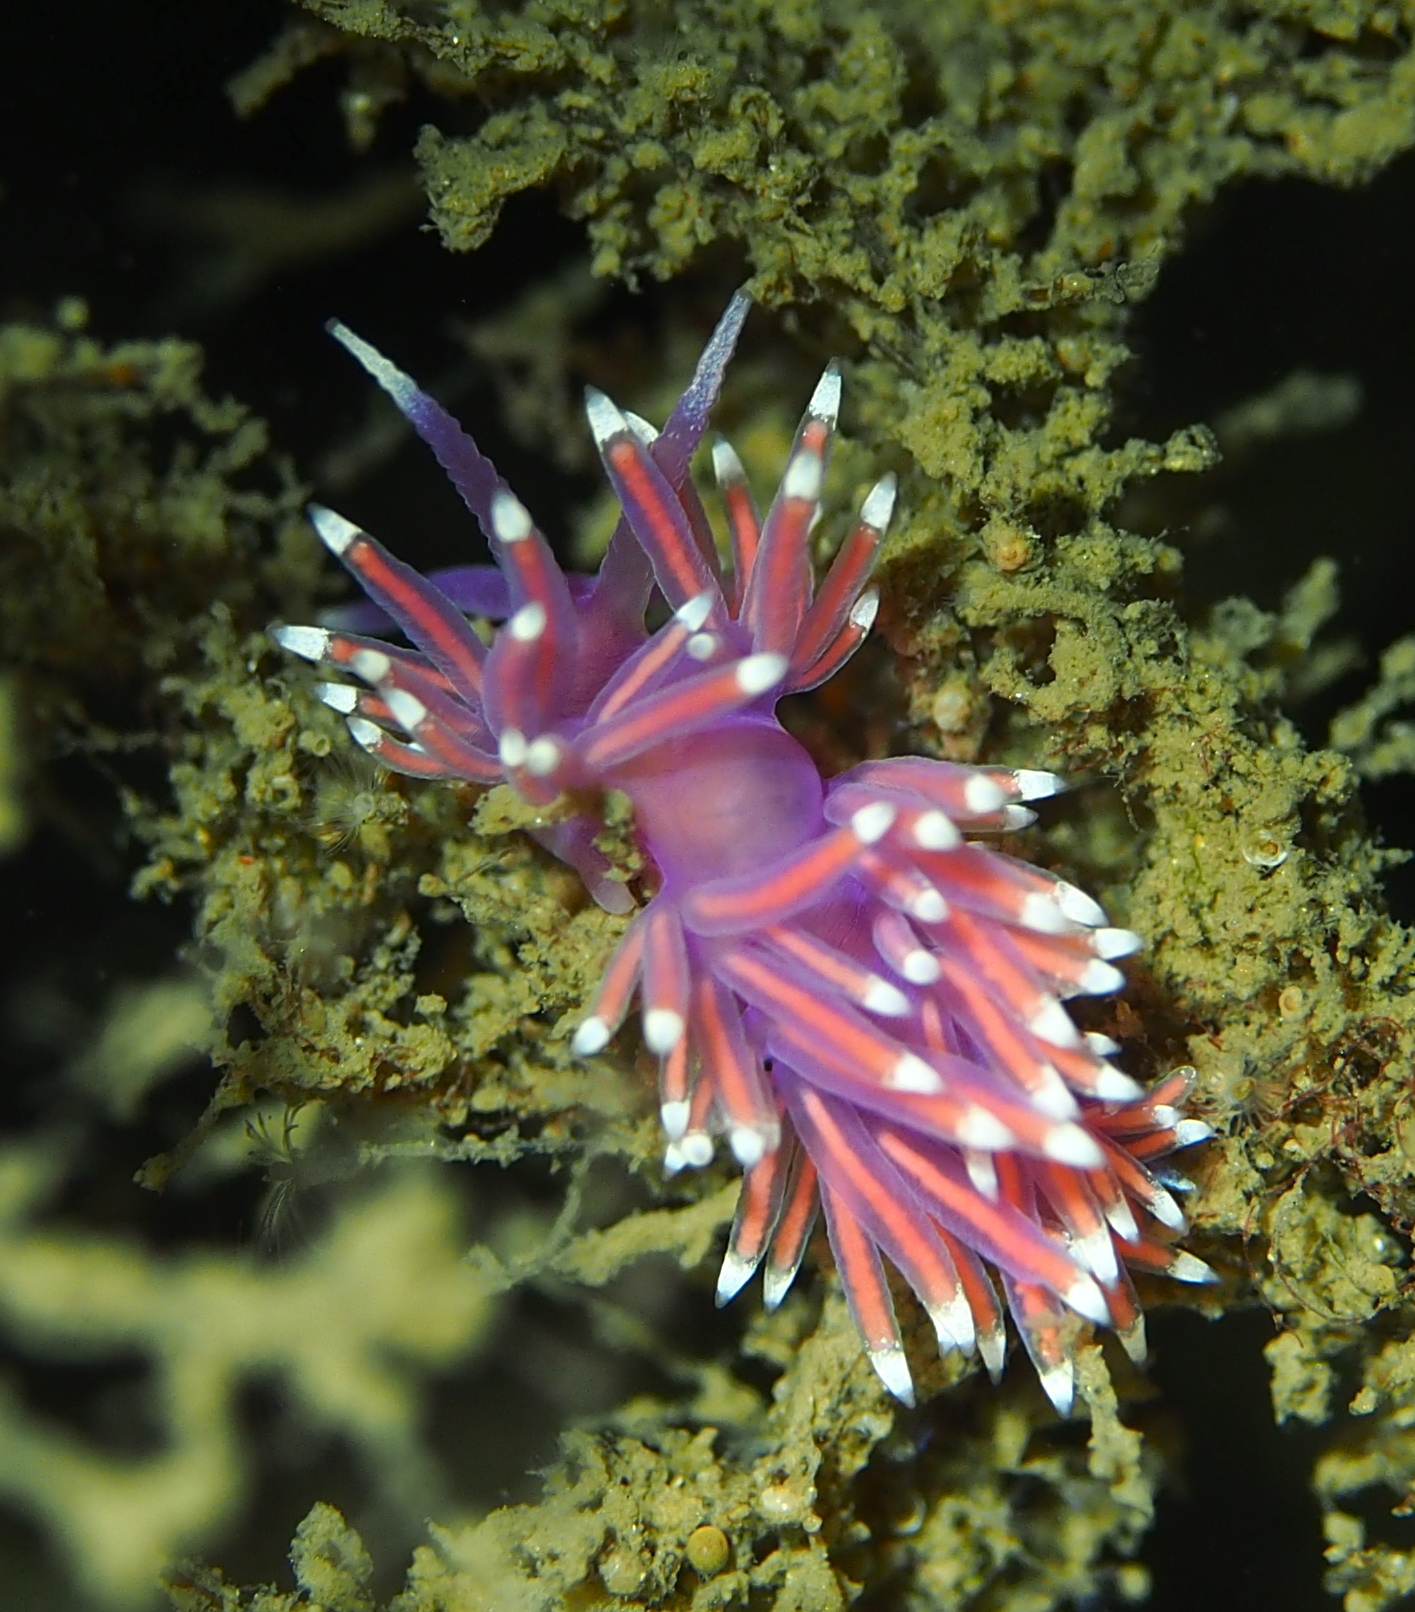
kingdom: Animalia
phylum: Mollusca
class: Gastropoda
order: Nudibranchia
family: Flabellinidae
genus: Edmundsella
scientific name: Edmundsella pedata
